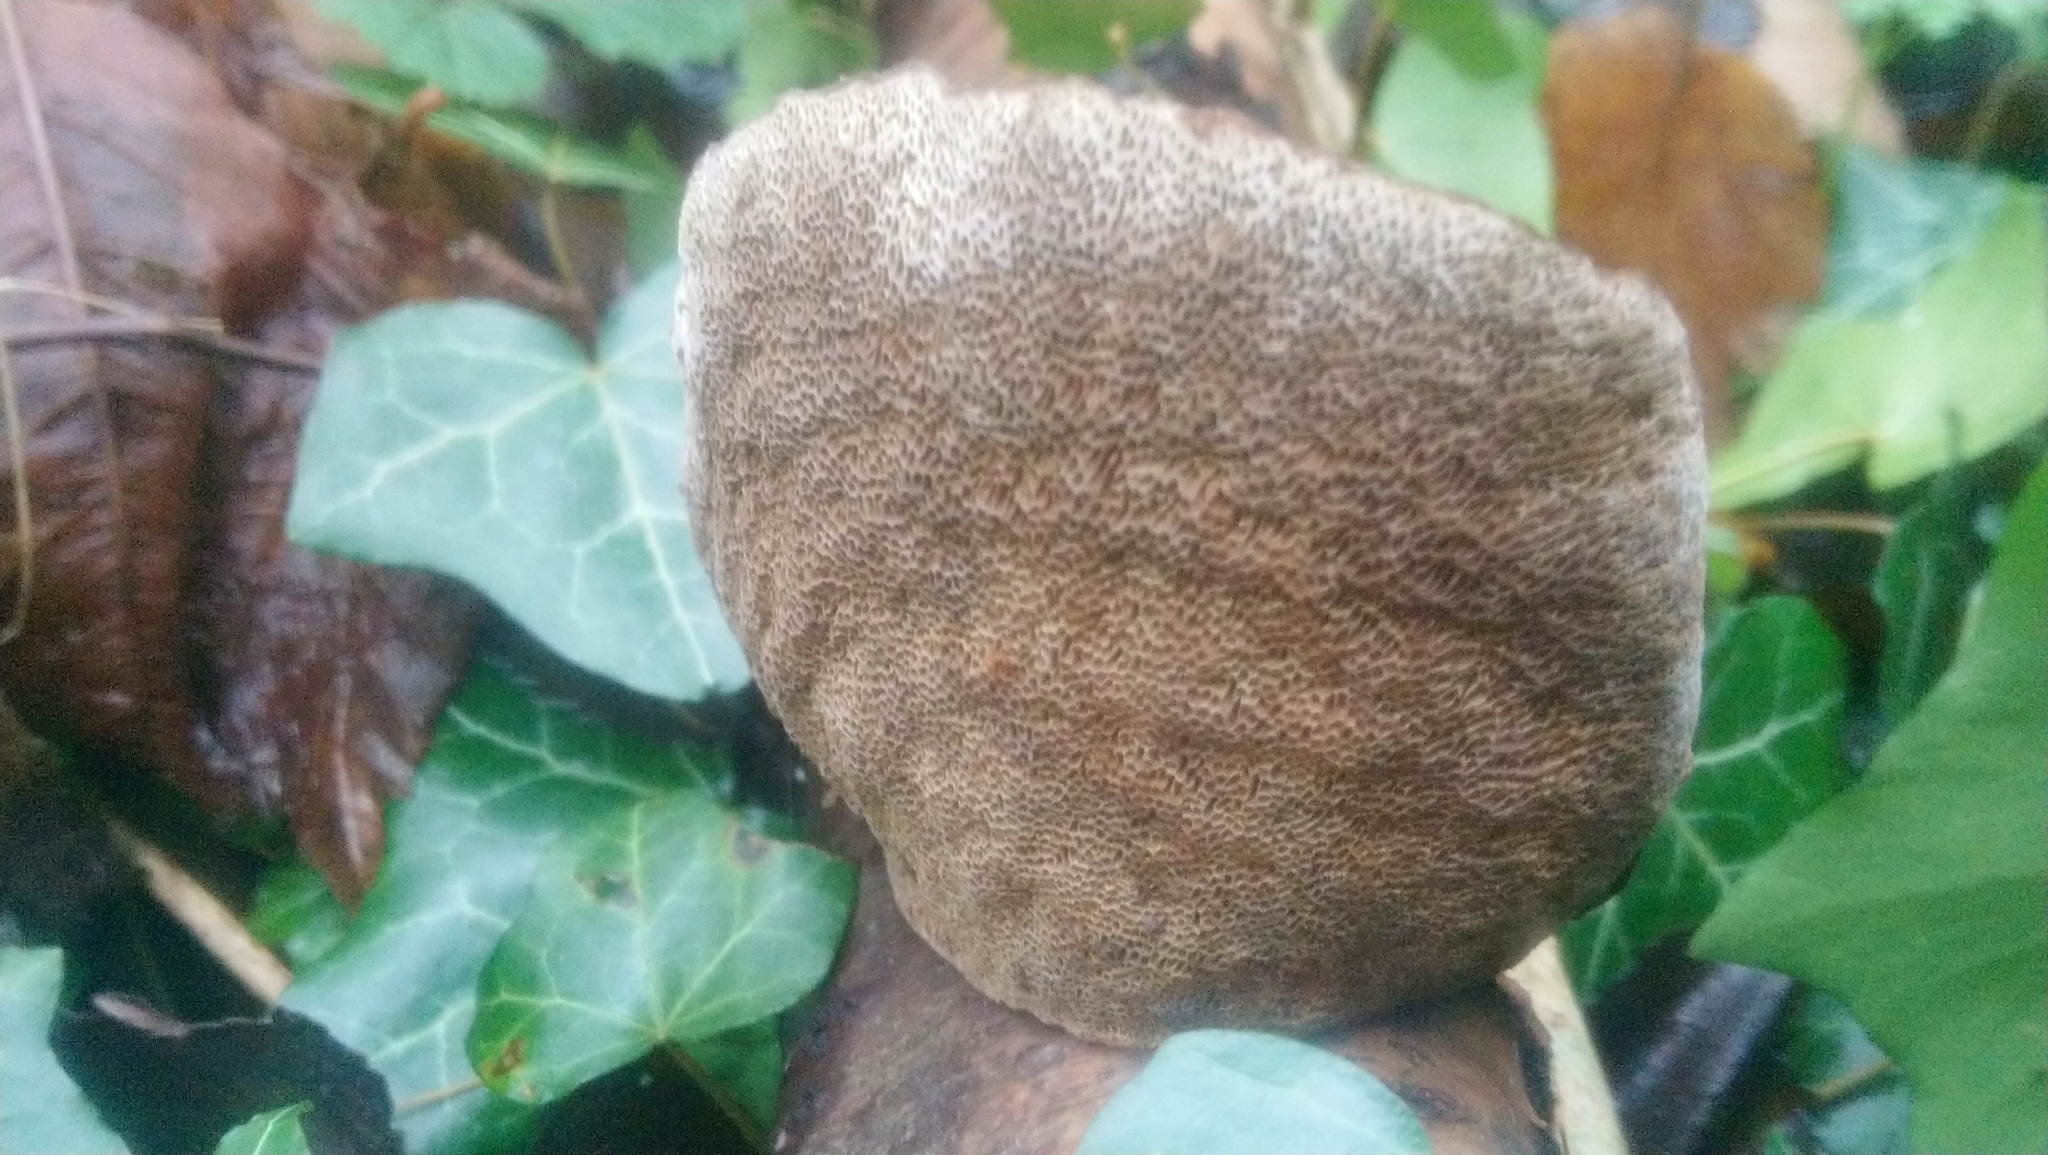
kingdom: Fungi
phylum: Basidiomycota
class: Agaricomycetes
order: Polyporales
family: Polyporaceae
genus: Daedaleopsis
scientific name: Daedaleopsis confragosa
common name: Blushing bracket
